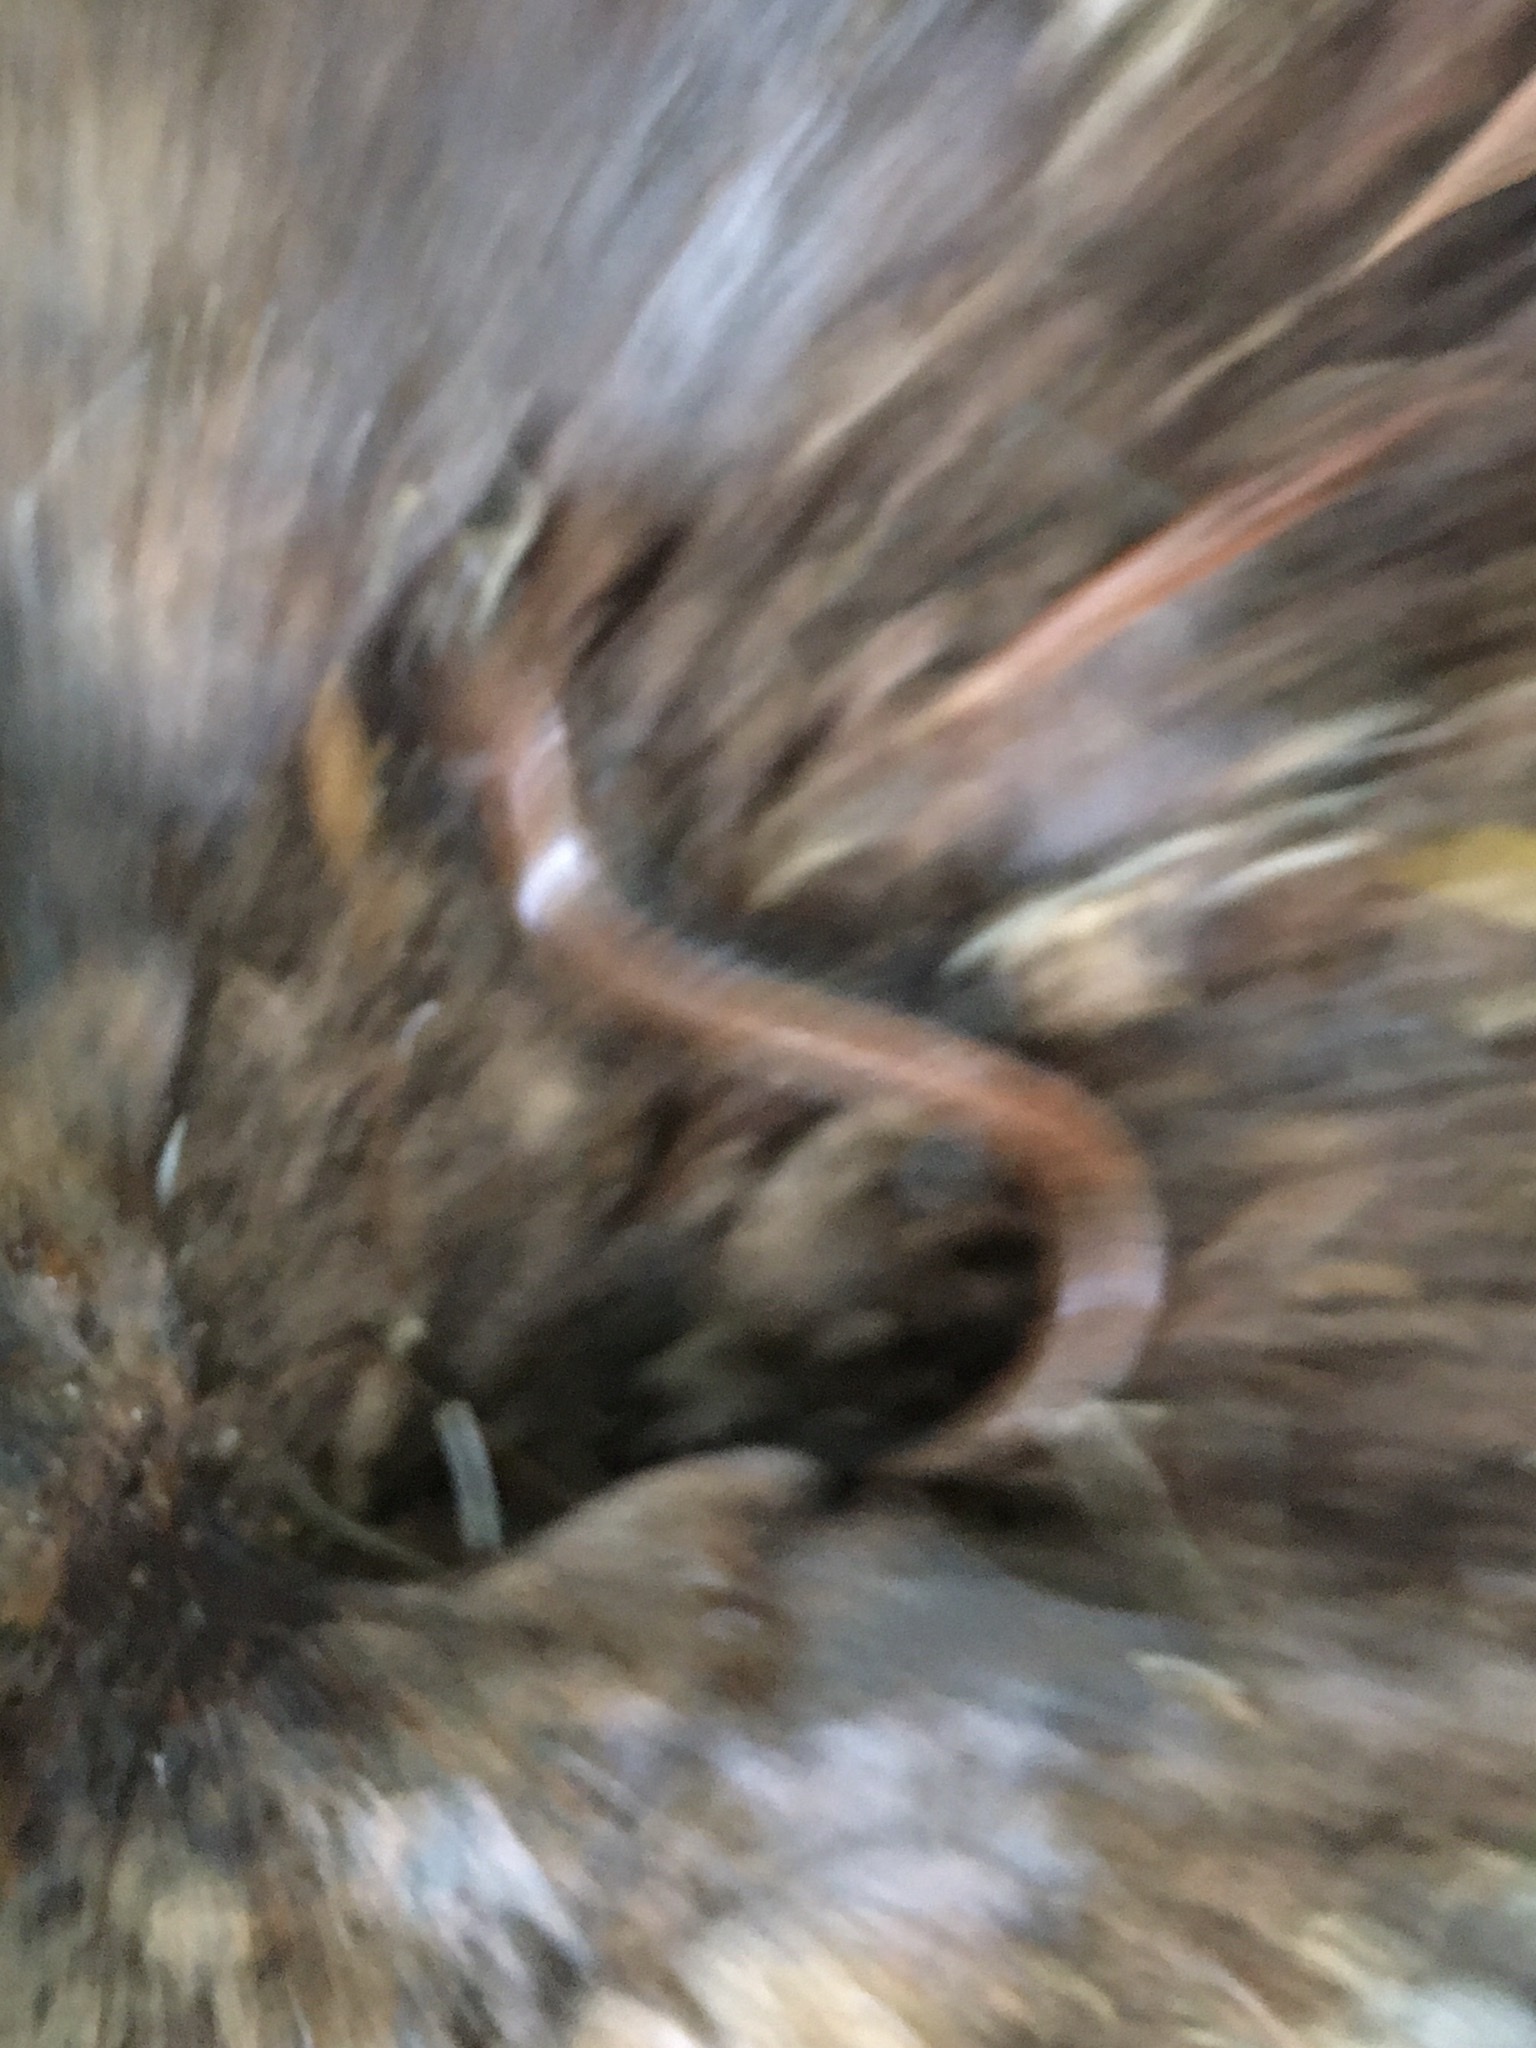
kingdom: Animalia
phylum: Chordata
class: Amphibia
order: Caudata
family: Plethodontidae
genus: Plethodon
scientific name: Plethodon cinereus
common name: Redback salamander
